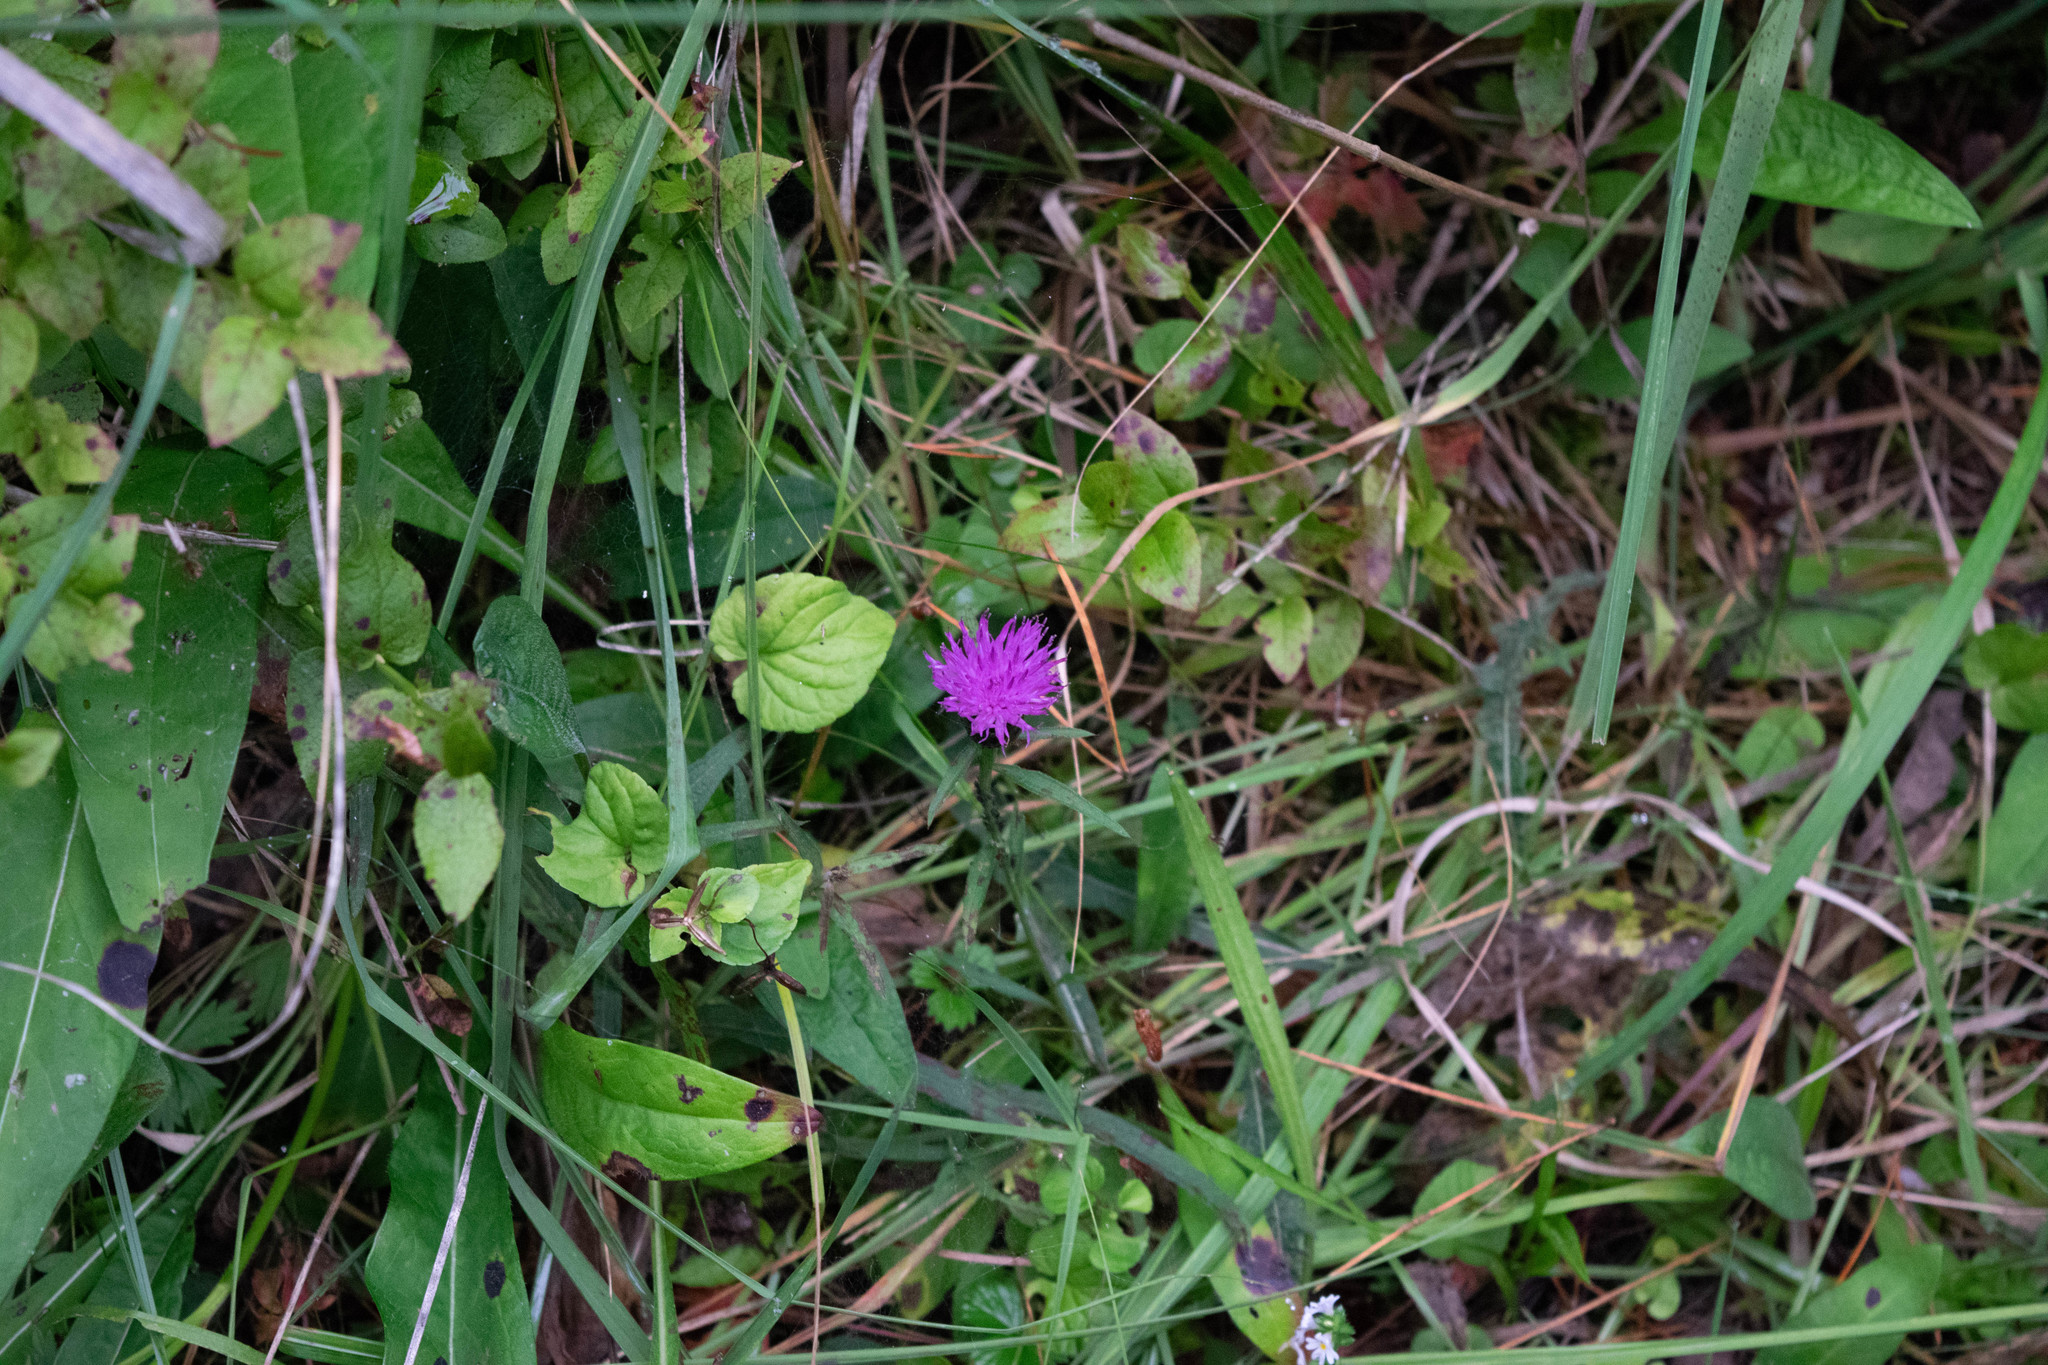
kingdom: Plantae
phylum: Tracheophyta
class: Magnoliopsida
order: Asterales
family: Asteraceae
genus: Centaurea
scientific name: Centaurea nigra
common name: Lesser knapweed
